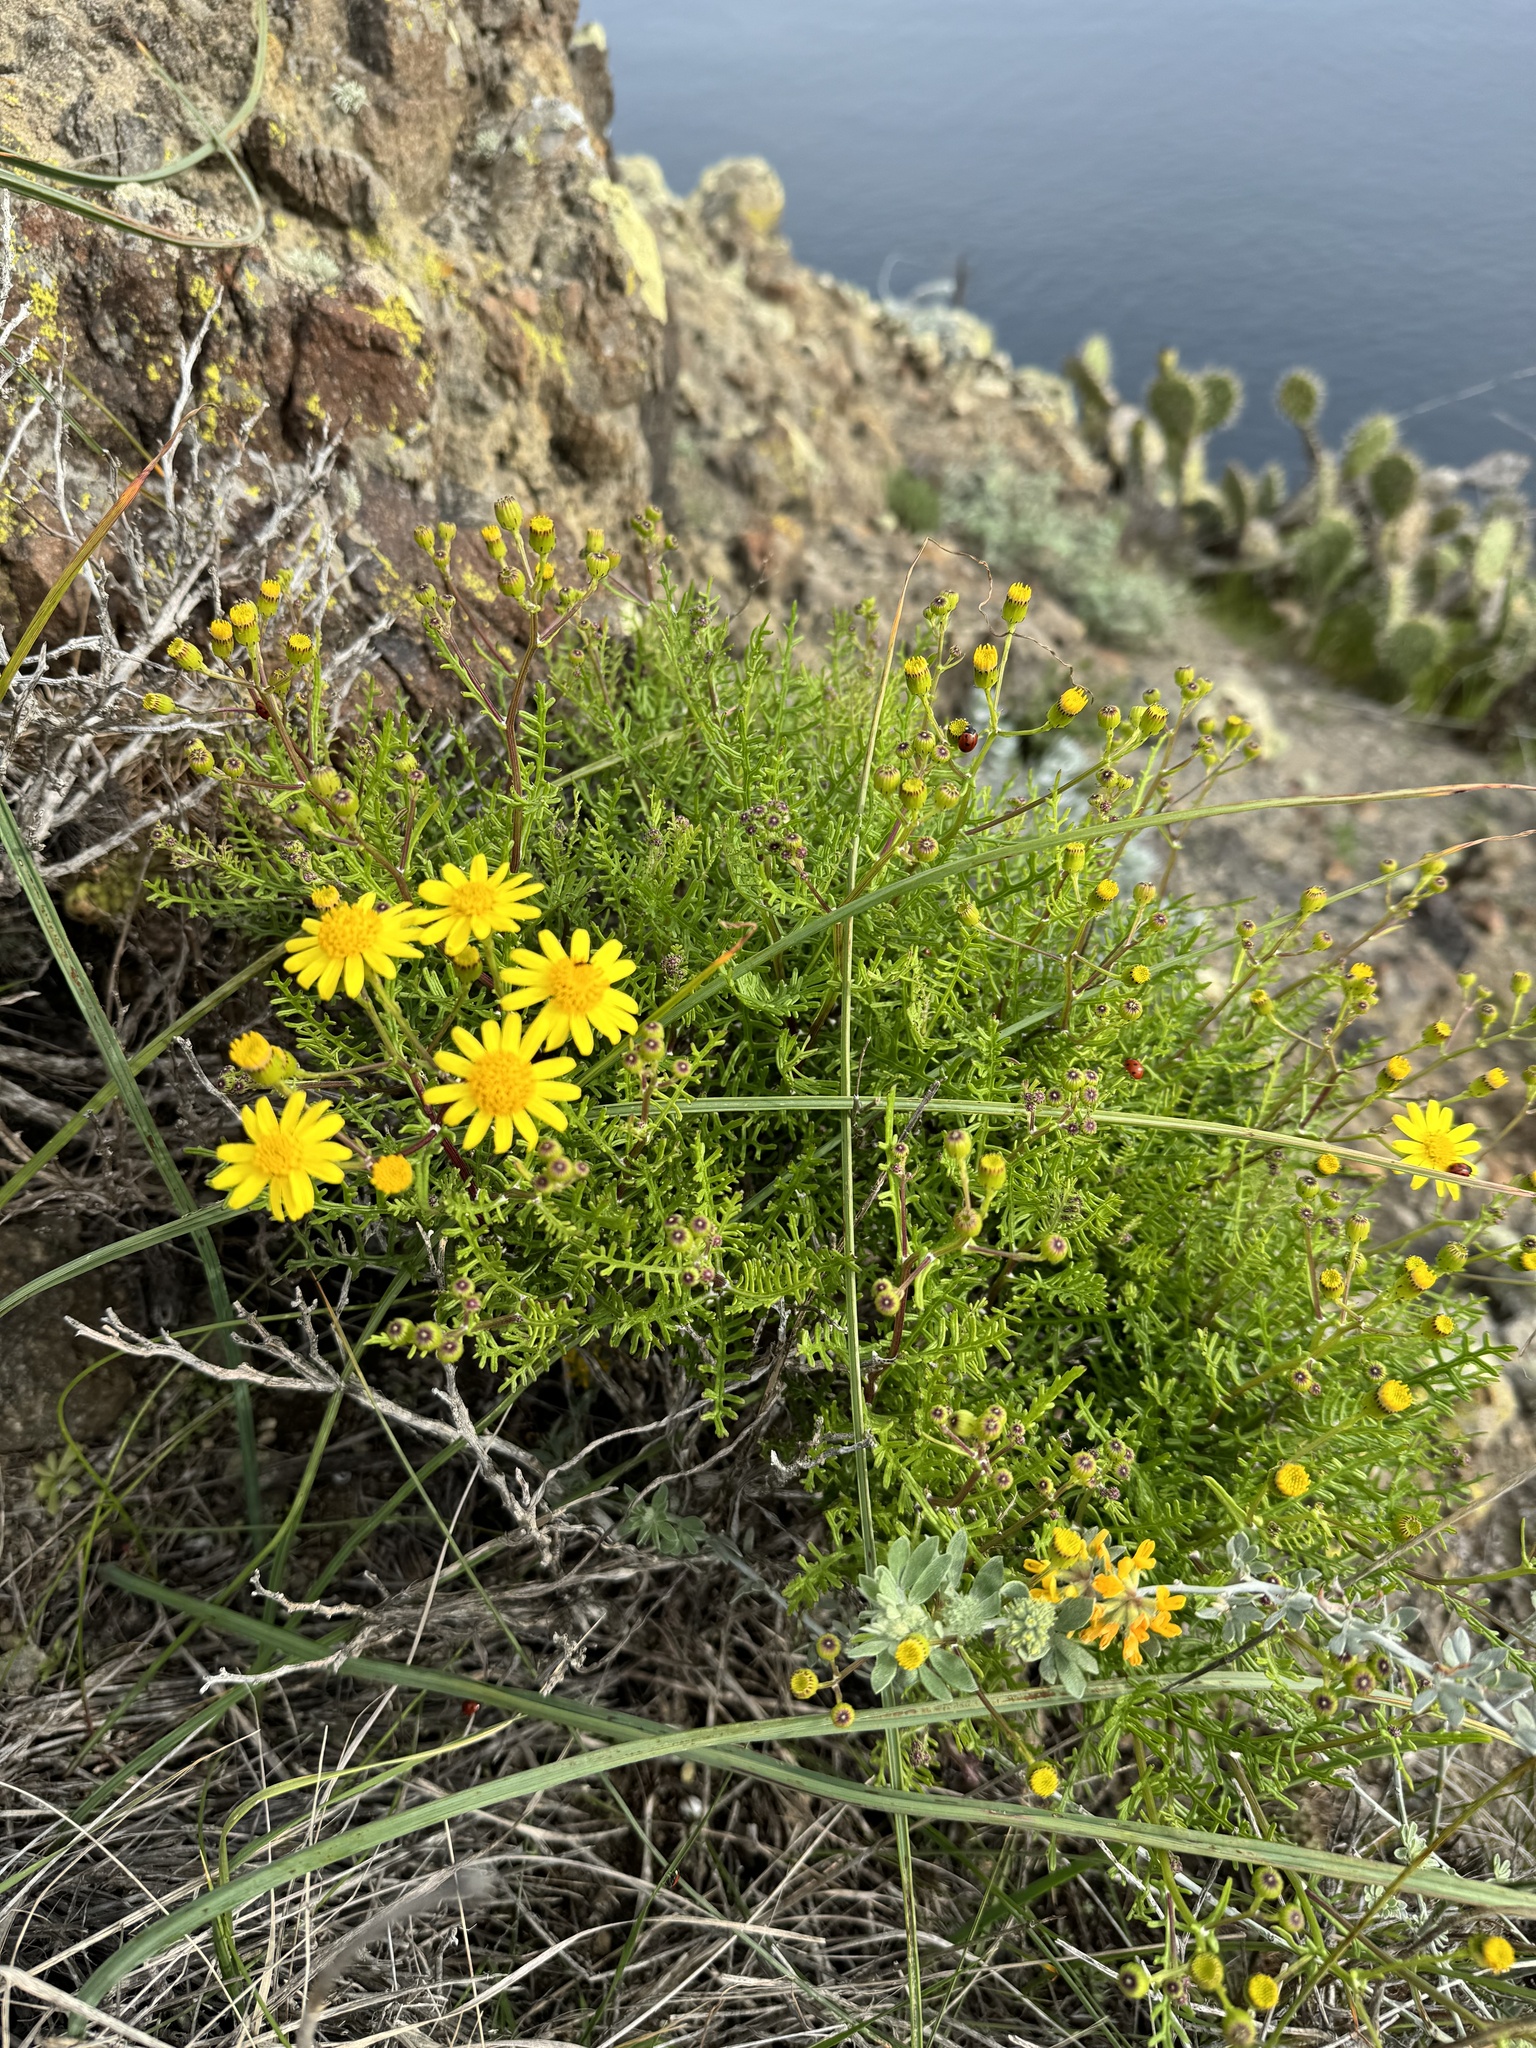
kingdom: Plantae
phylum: Tracheophyta
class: Magnoliopsida
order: Asterales
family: Asteraceae
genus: Senecio
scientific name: Senecio lyonii
